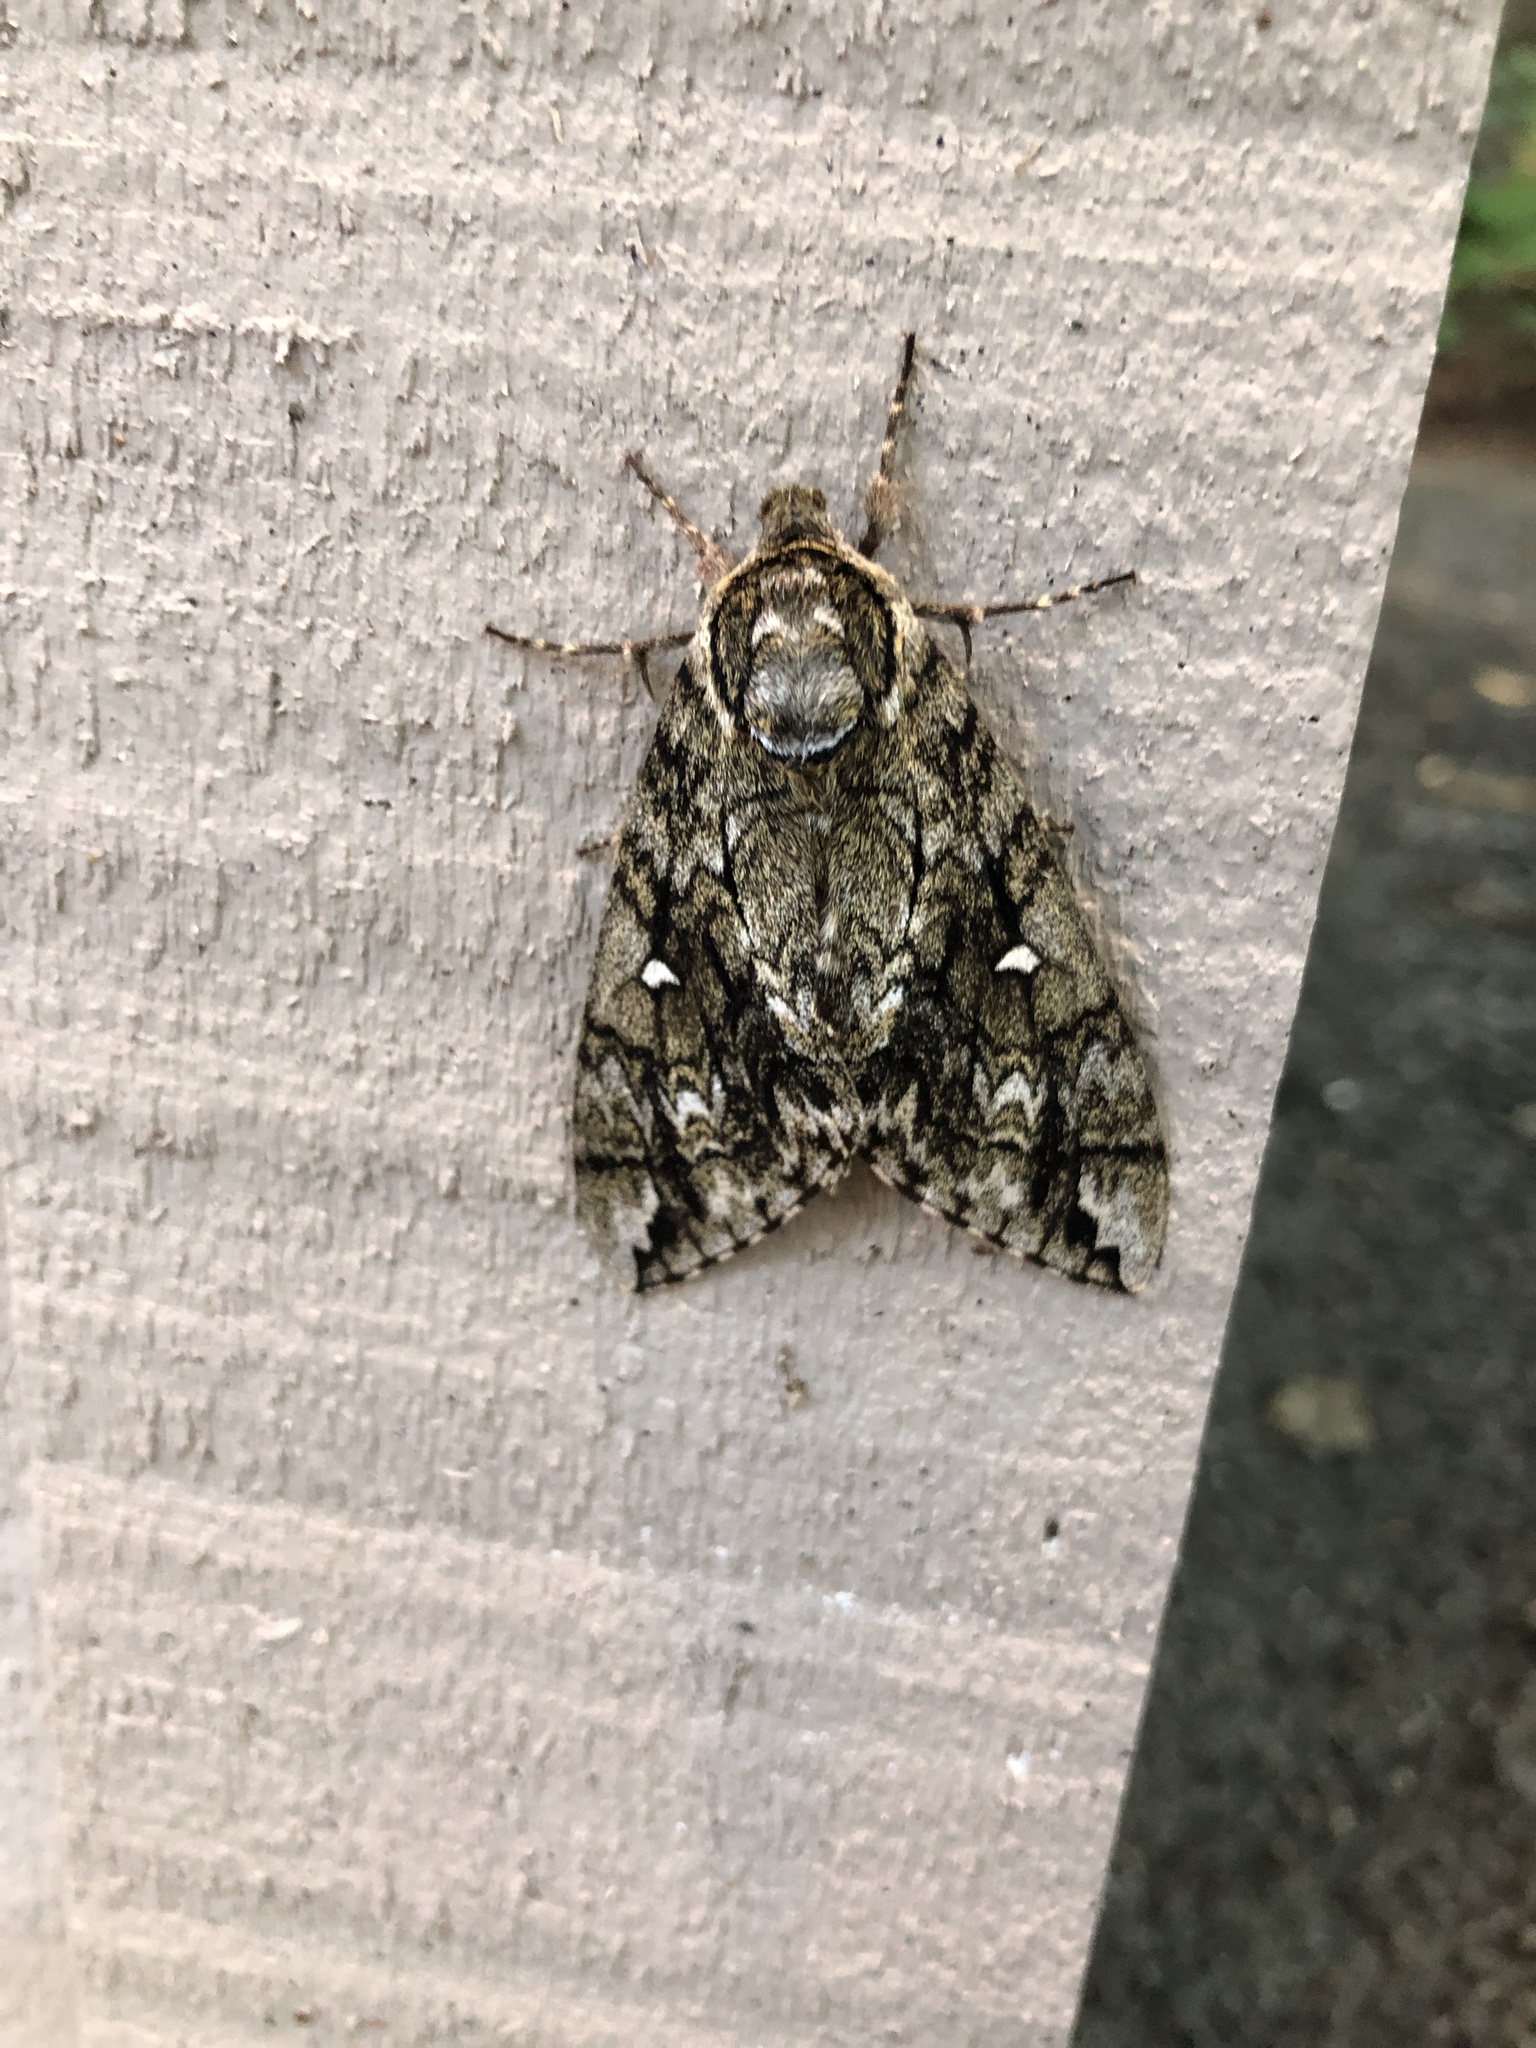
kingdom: Animalia
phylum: Arthropoda
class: Insecta
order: Lepidoptera
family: Sphingidae
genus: Ceratomia
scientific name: Ceratomia undulosa
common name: Waved sphinx
